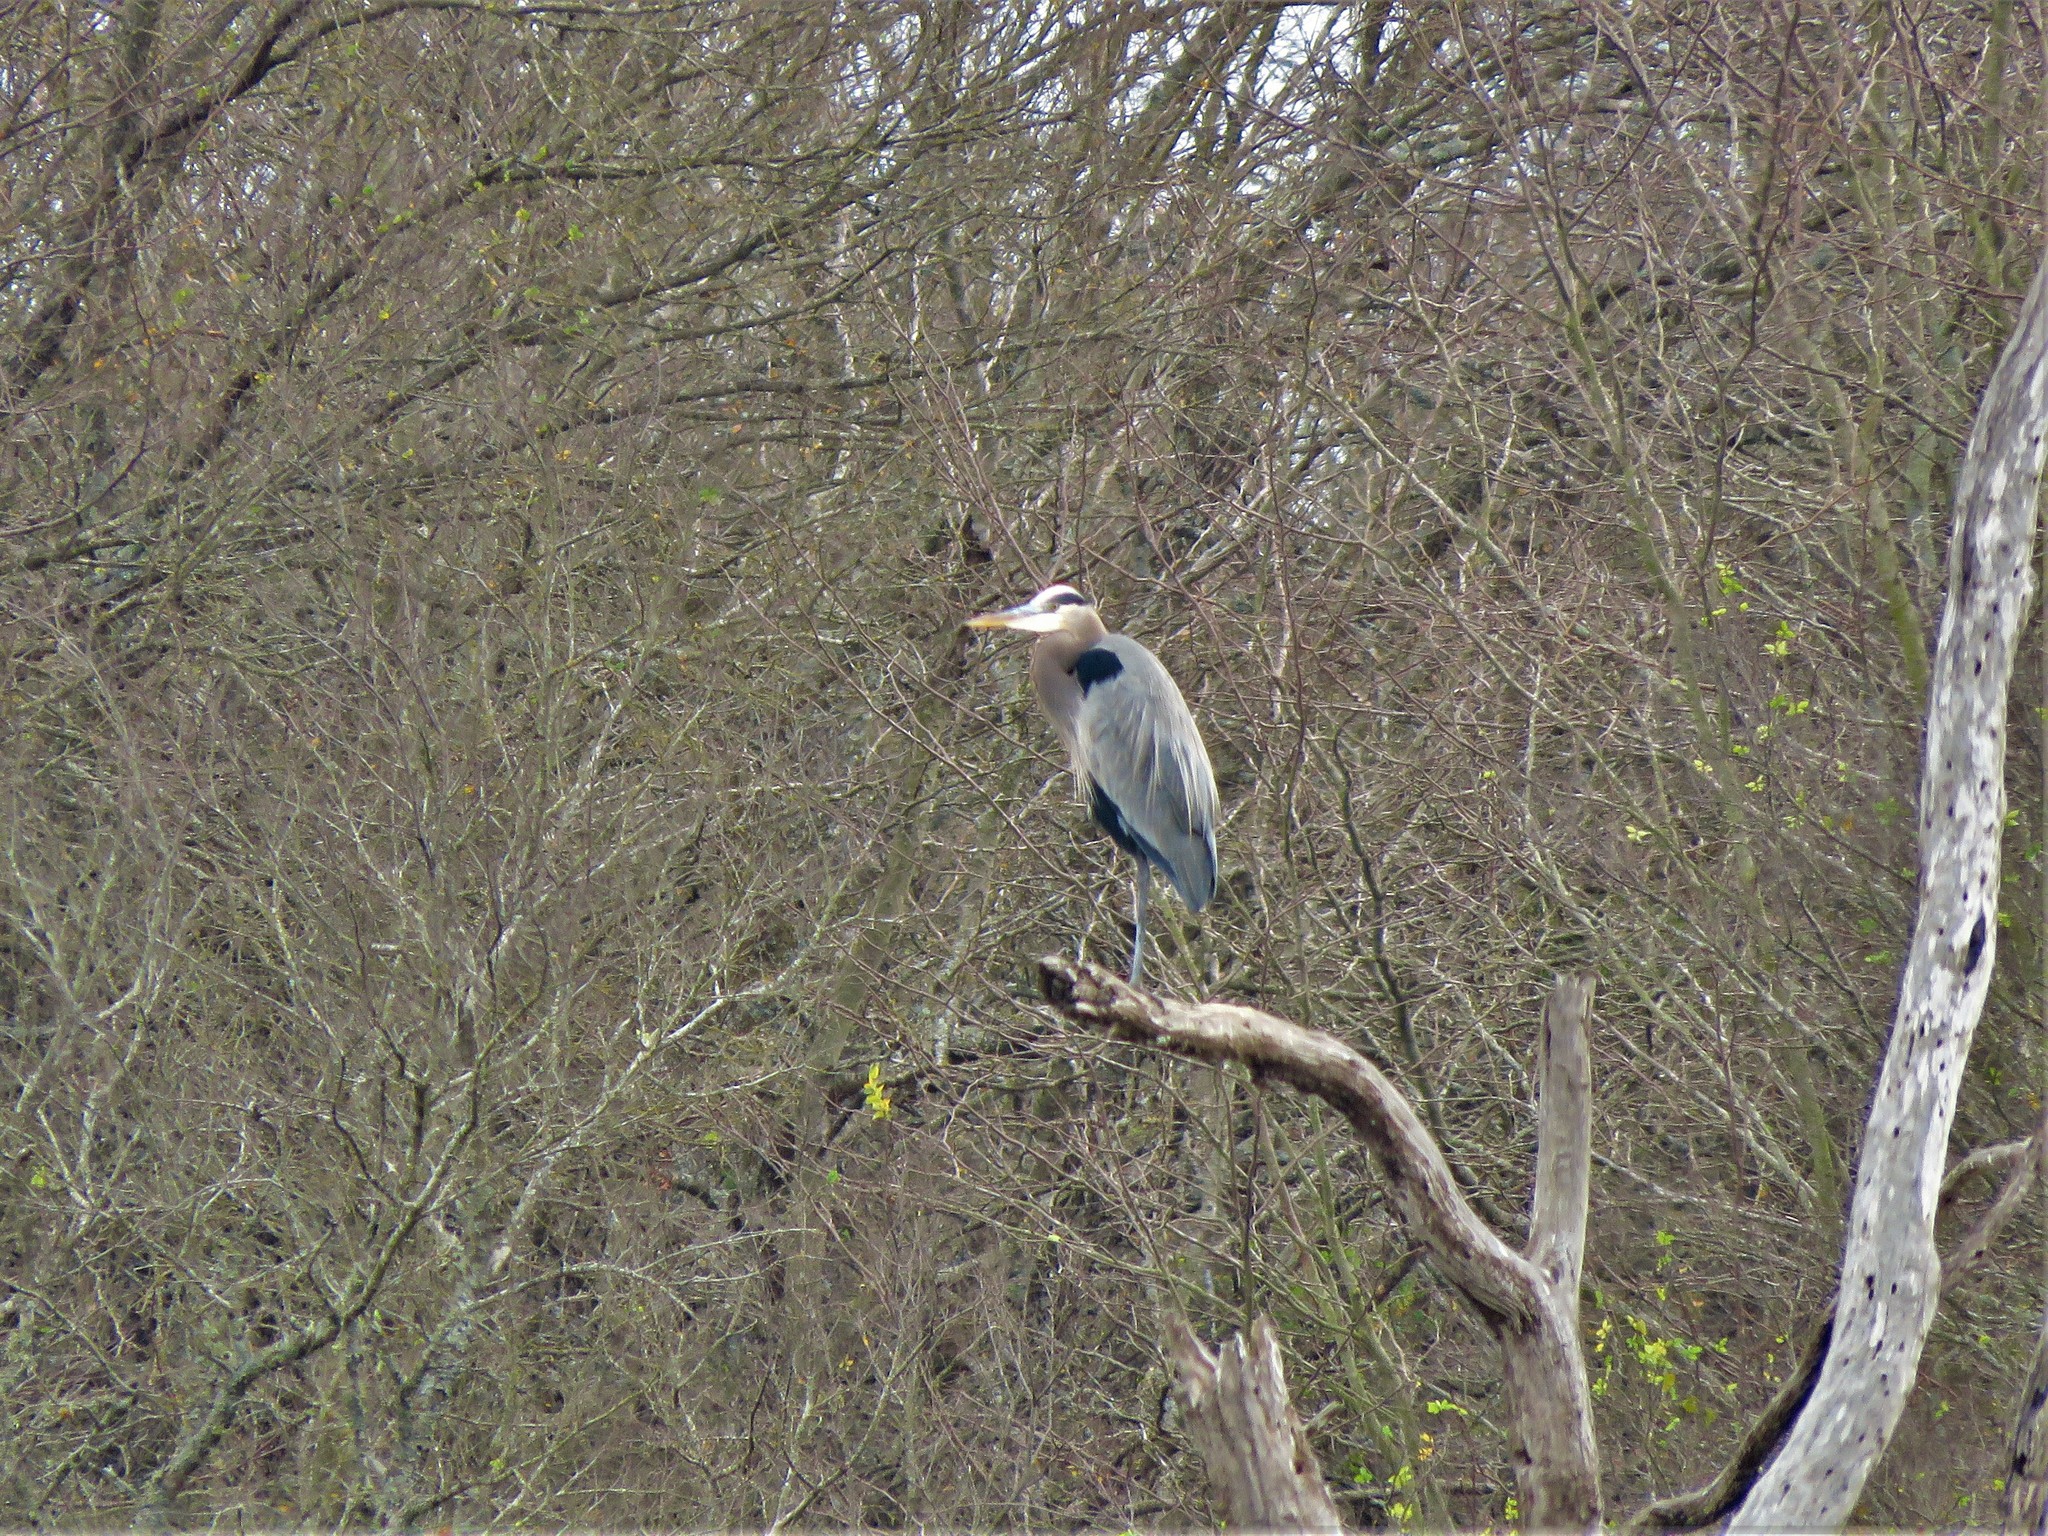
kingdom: Animalia
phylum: Chordata
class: Aves
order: Pelecaniformes
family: Ardeidae
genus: Ardea
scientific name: Ardea herodias
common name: Great blue heron
